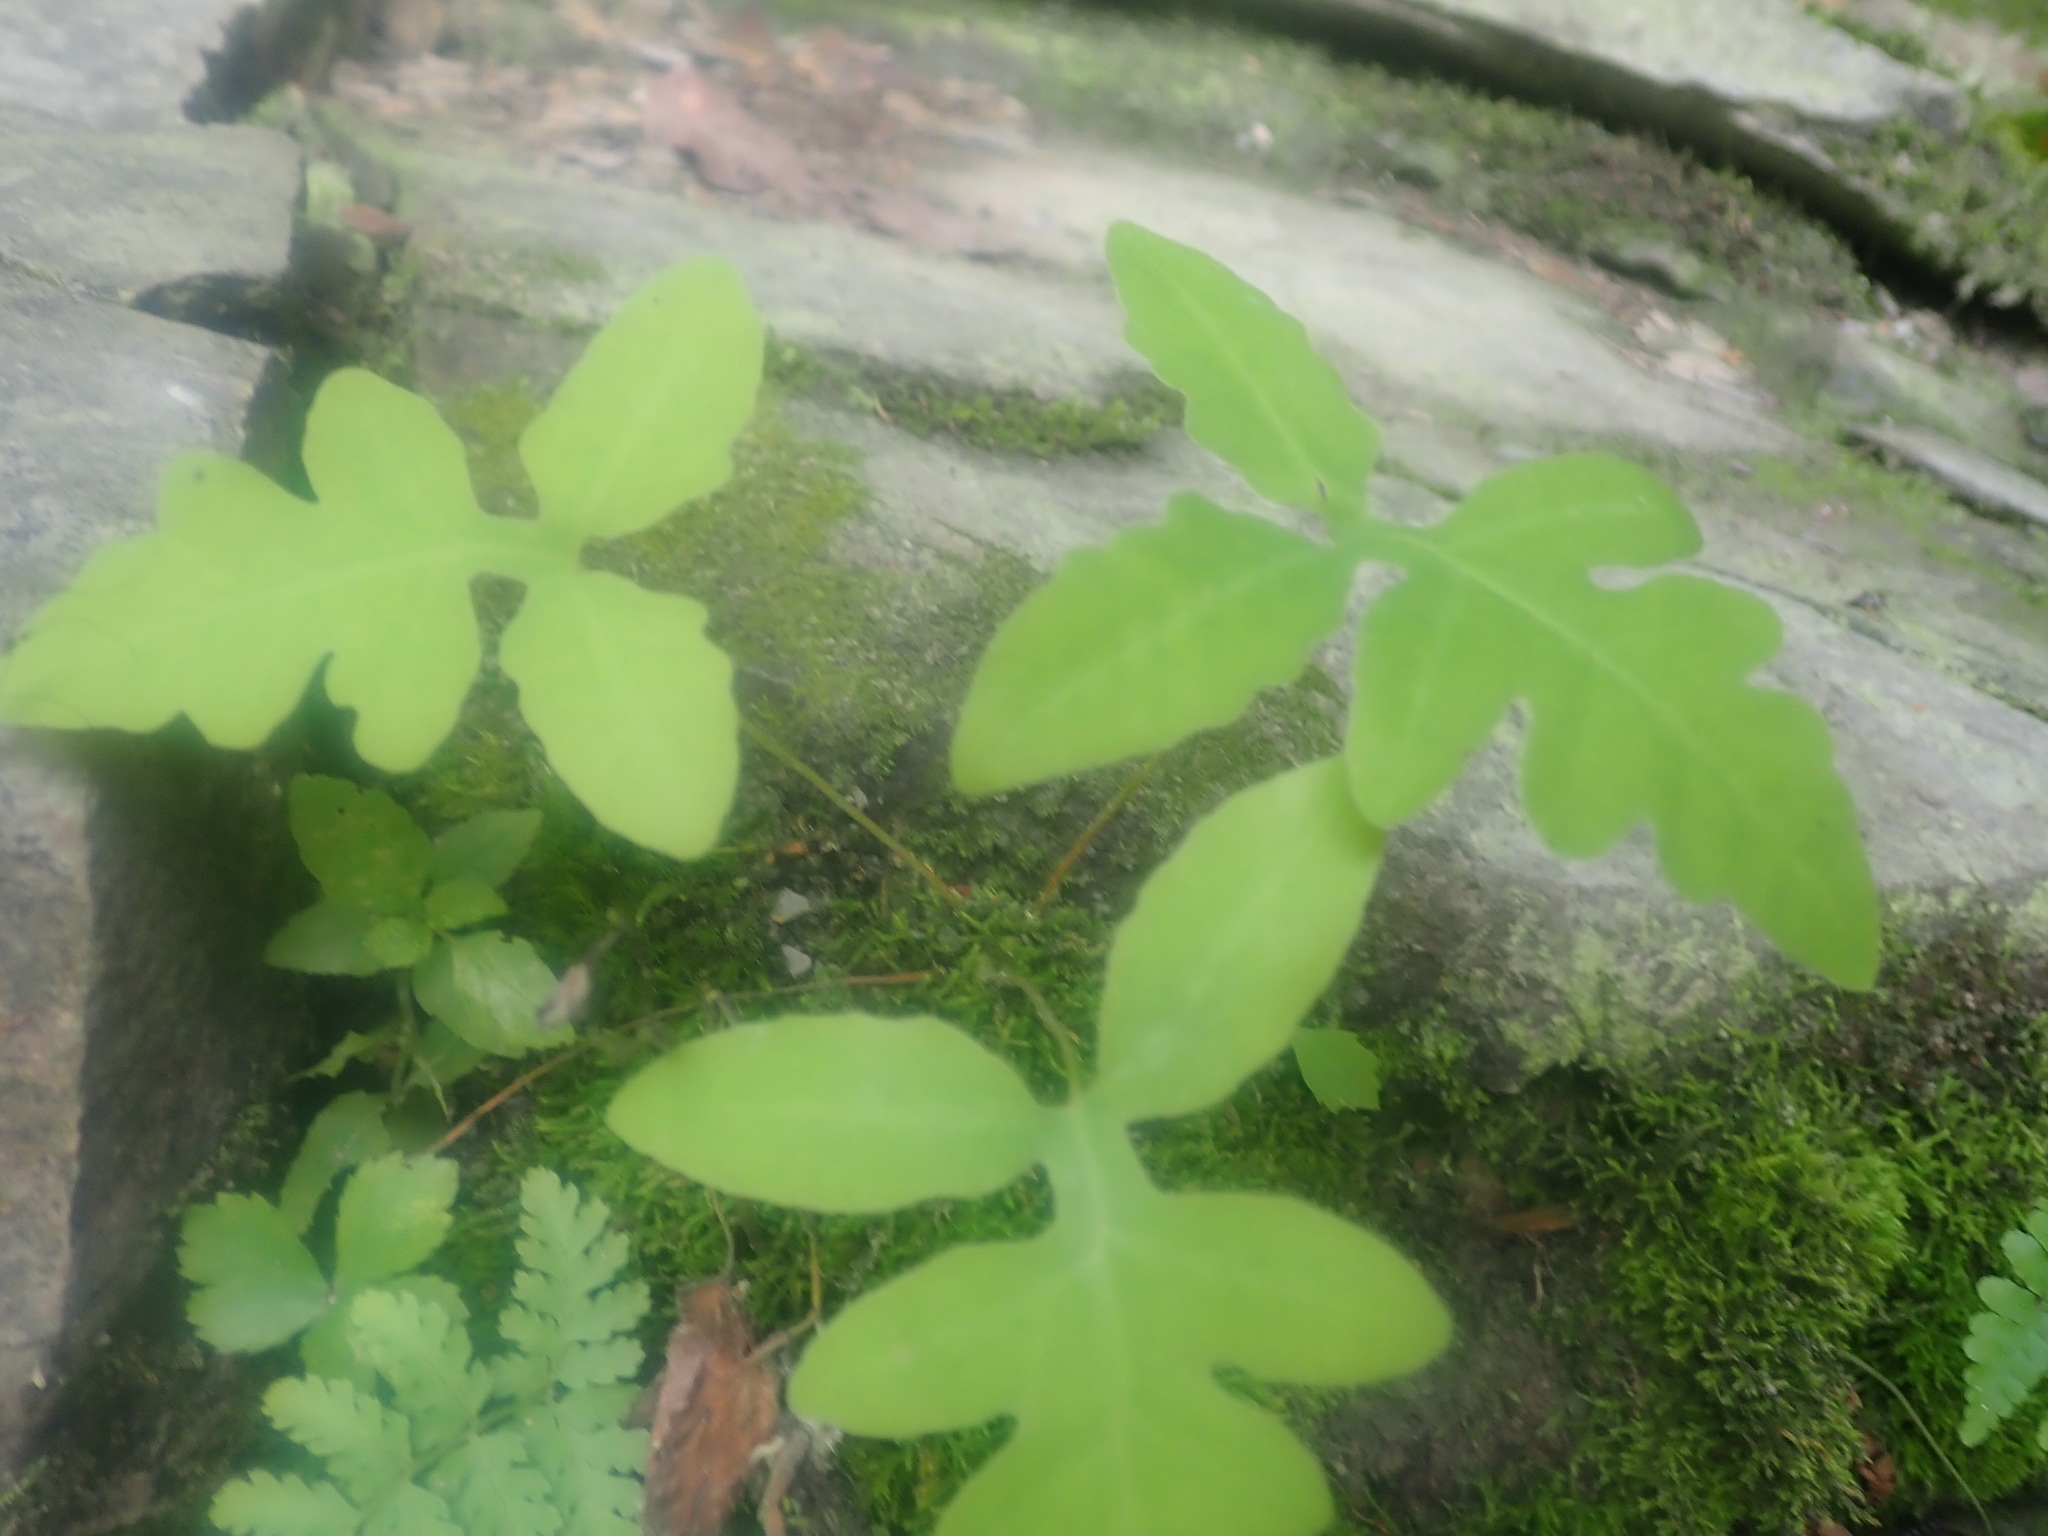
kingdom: Plantae
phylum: Tracheophyta
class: Polypodiopsida
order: Polypodiales
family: Onocleaceae
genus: Onoclea
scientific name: Onoclea sensibilis
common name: Sensitive fern
